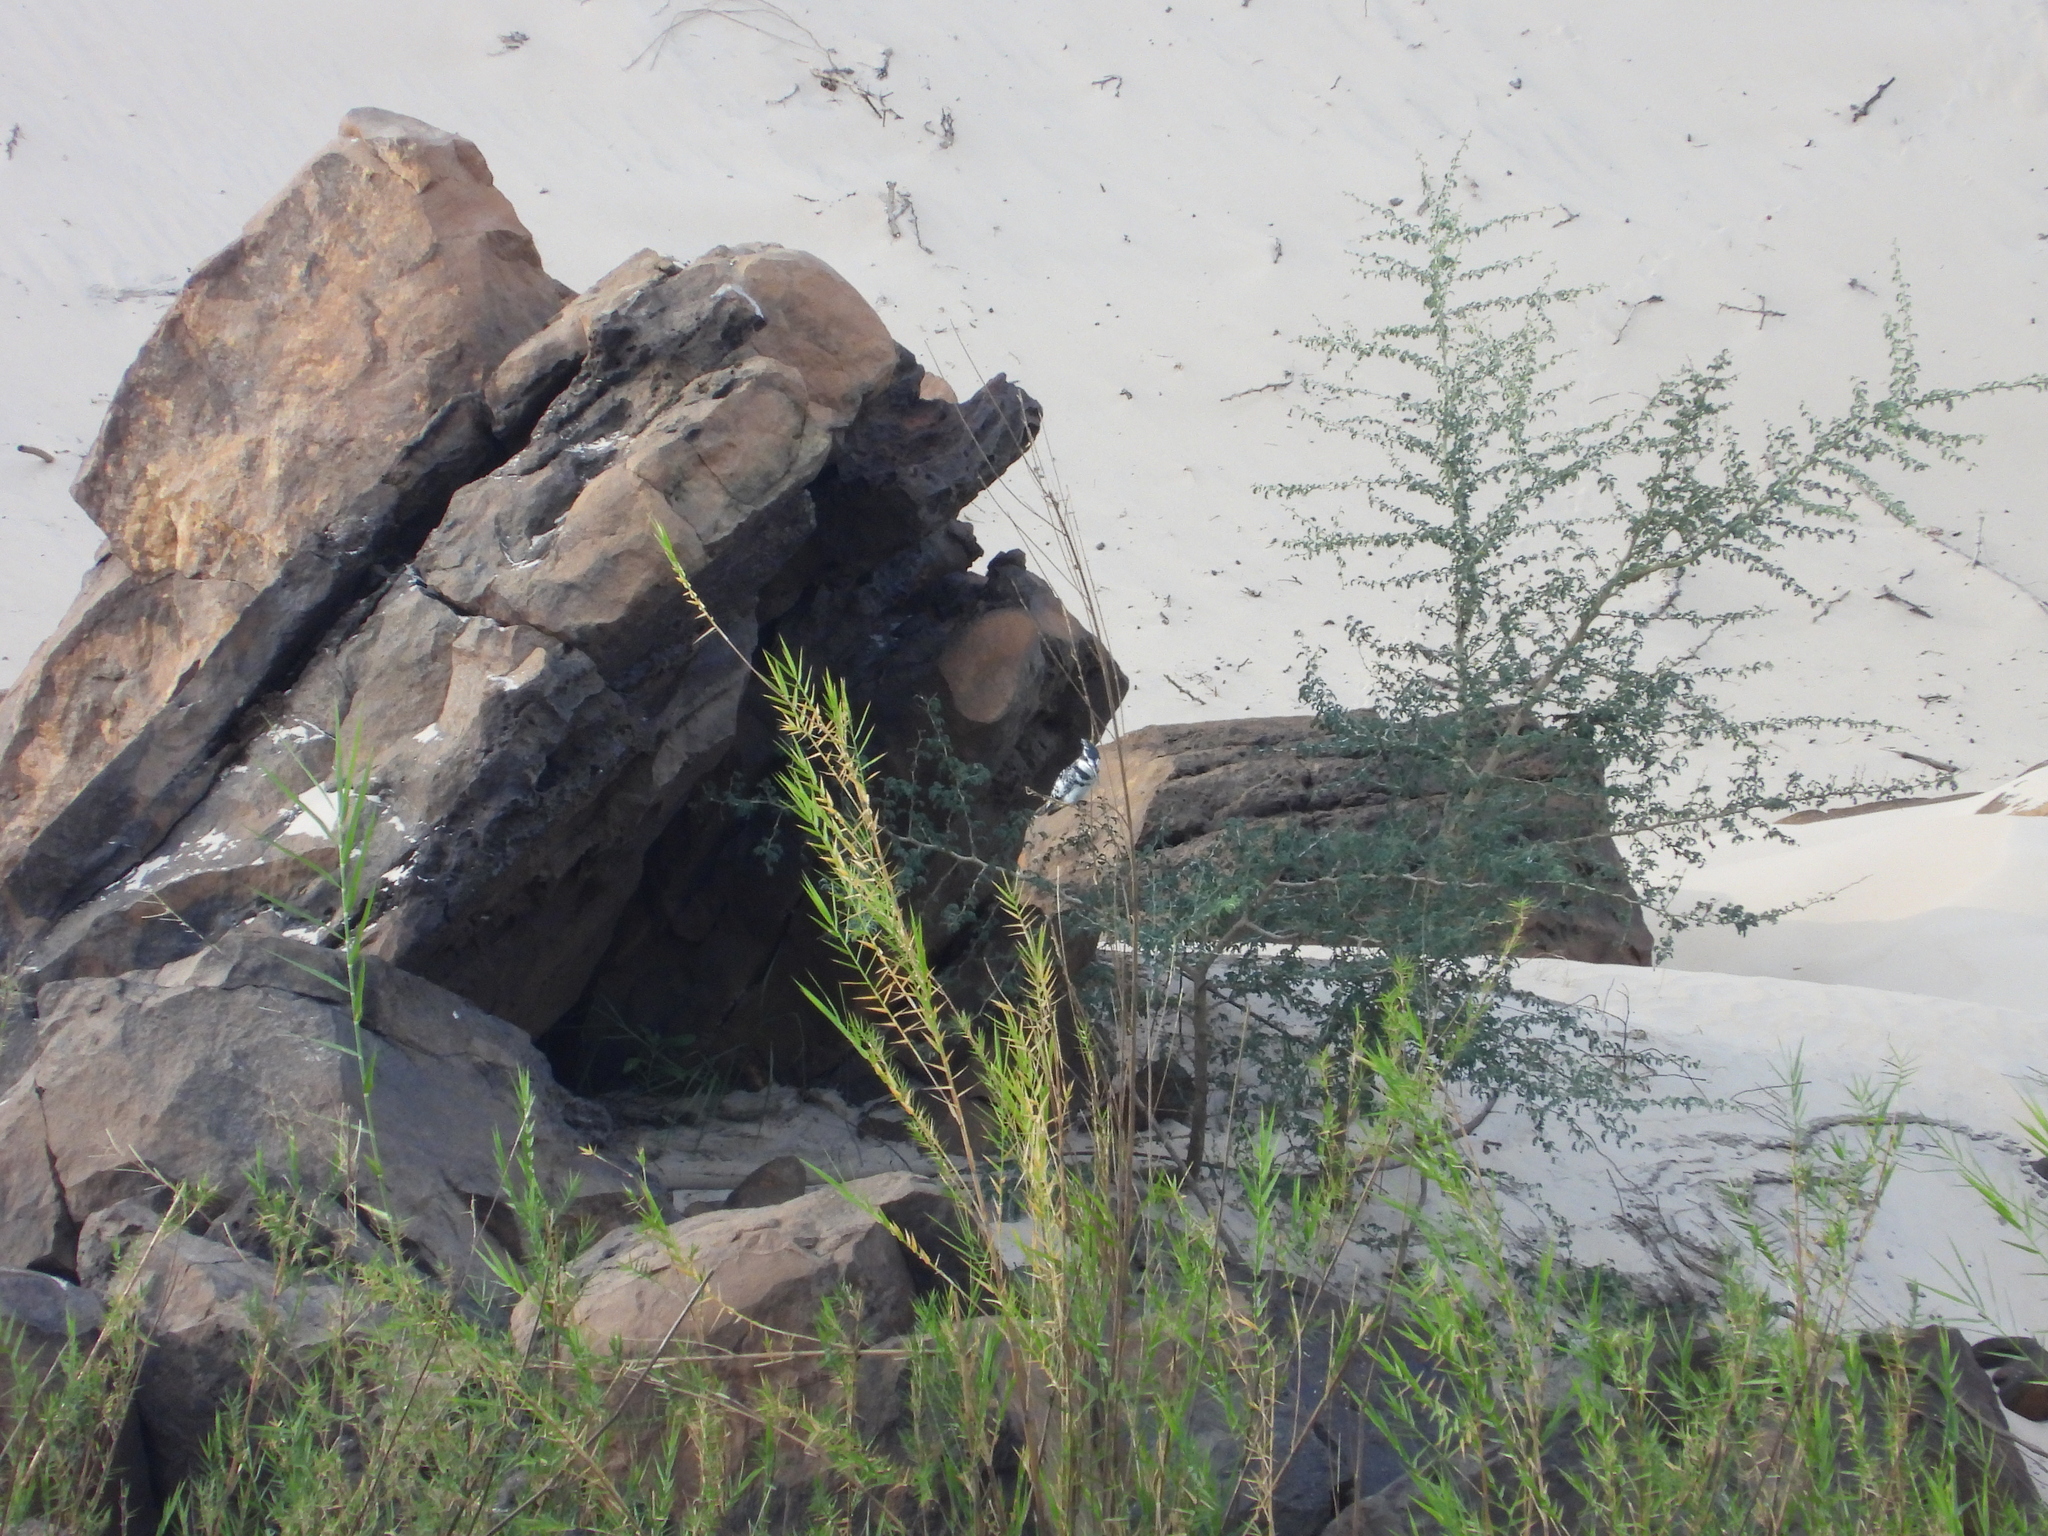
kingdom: Animalia
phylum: Chordata
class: Aves
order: Coraciiformes
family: Alcedinidae
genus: Ceryle
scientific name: Ceryle rudis
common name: Pied kingfisher
